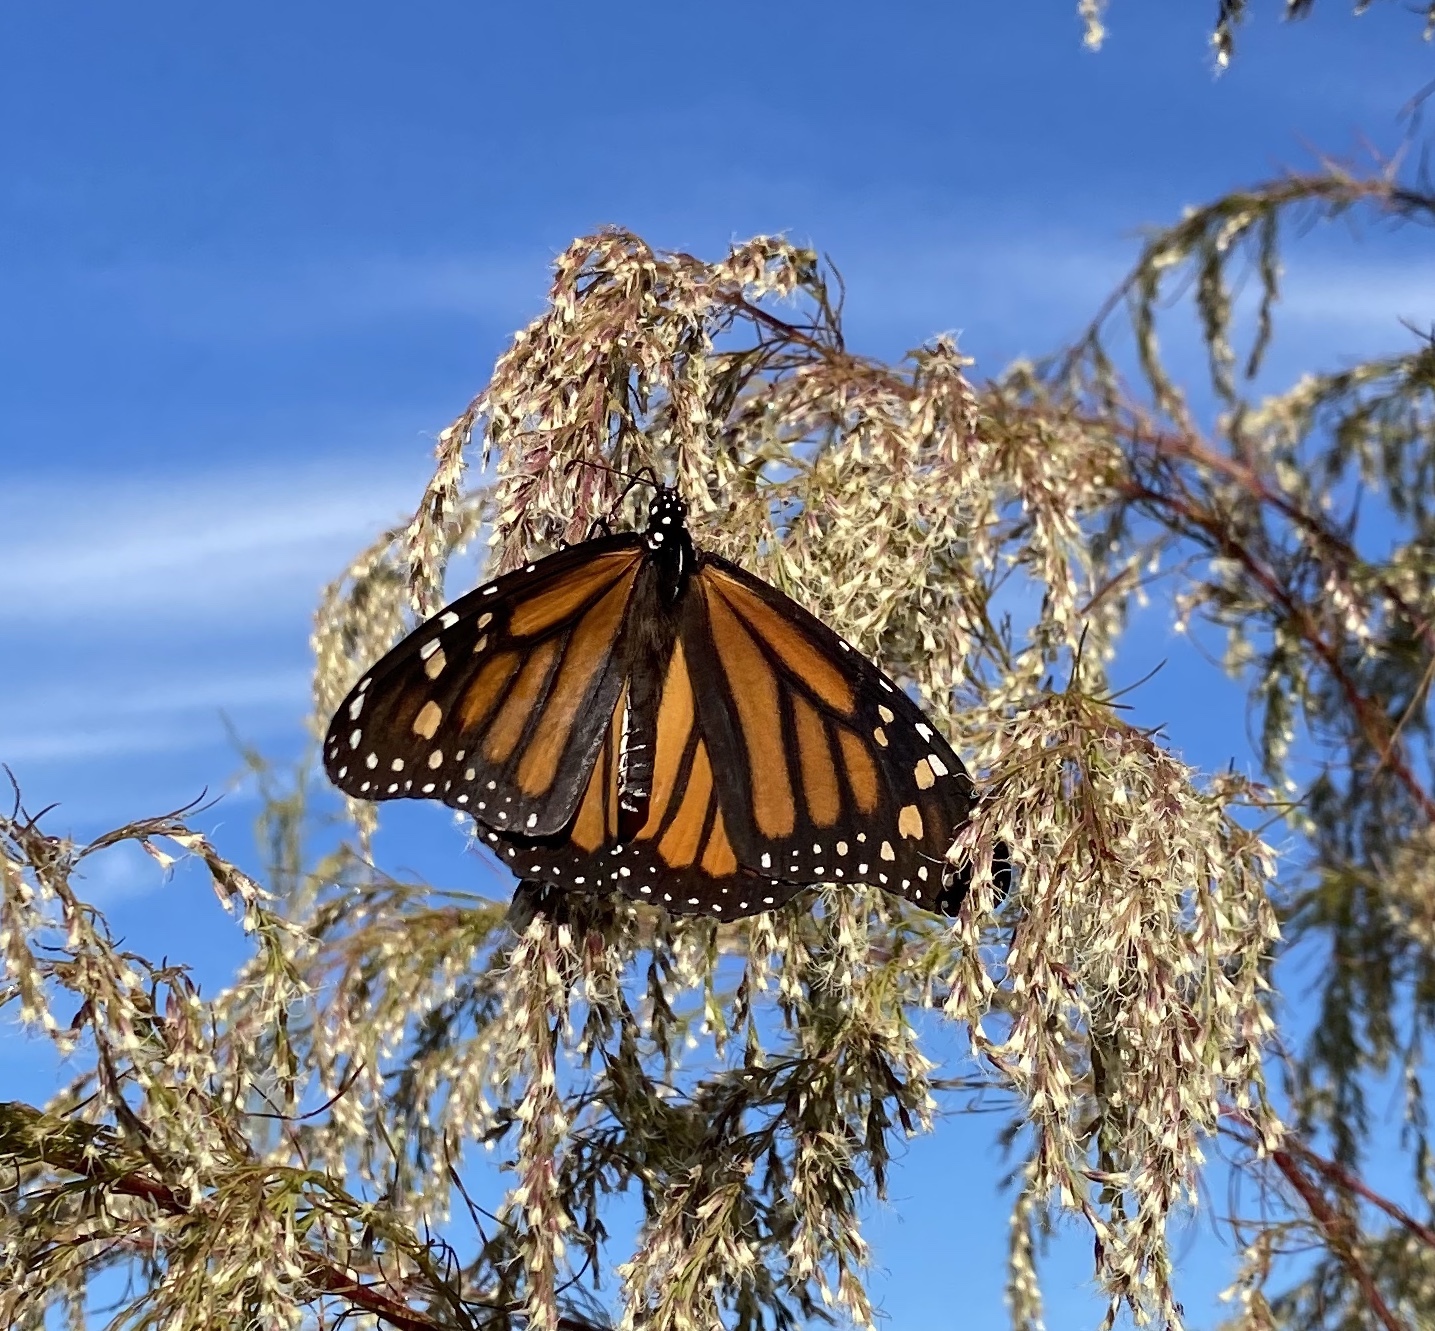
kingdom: Animalia
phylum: Arthropoda
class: Insecta
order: Lepidoptera
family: Nymphalidae
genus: Danaus
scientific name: Danaus plexippus
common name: Monarch
